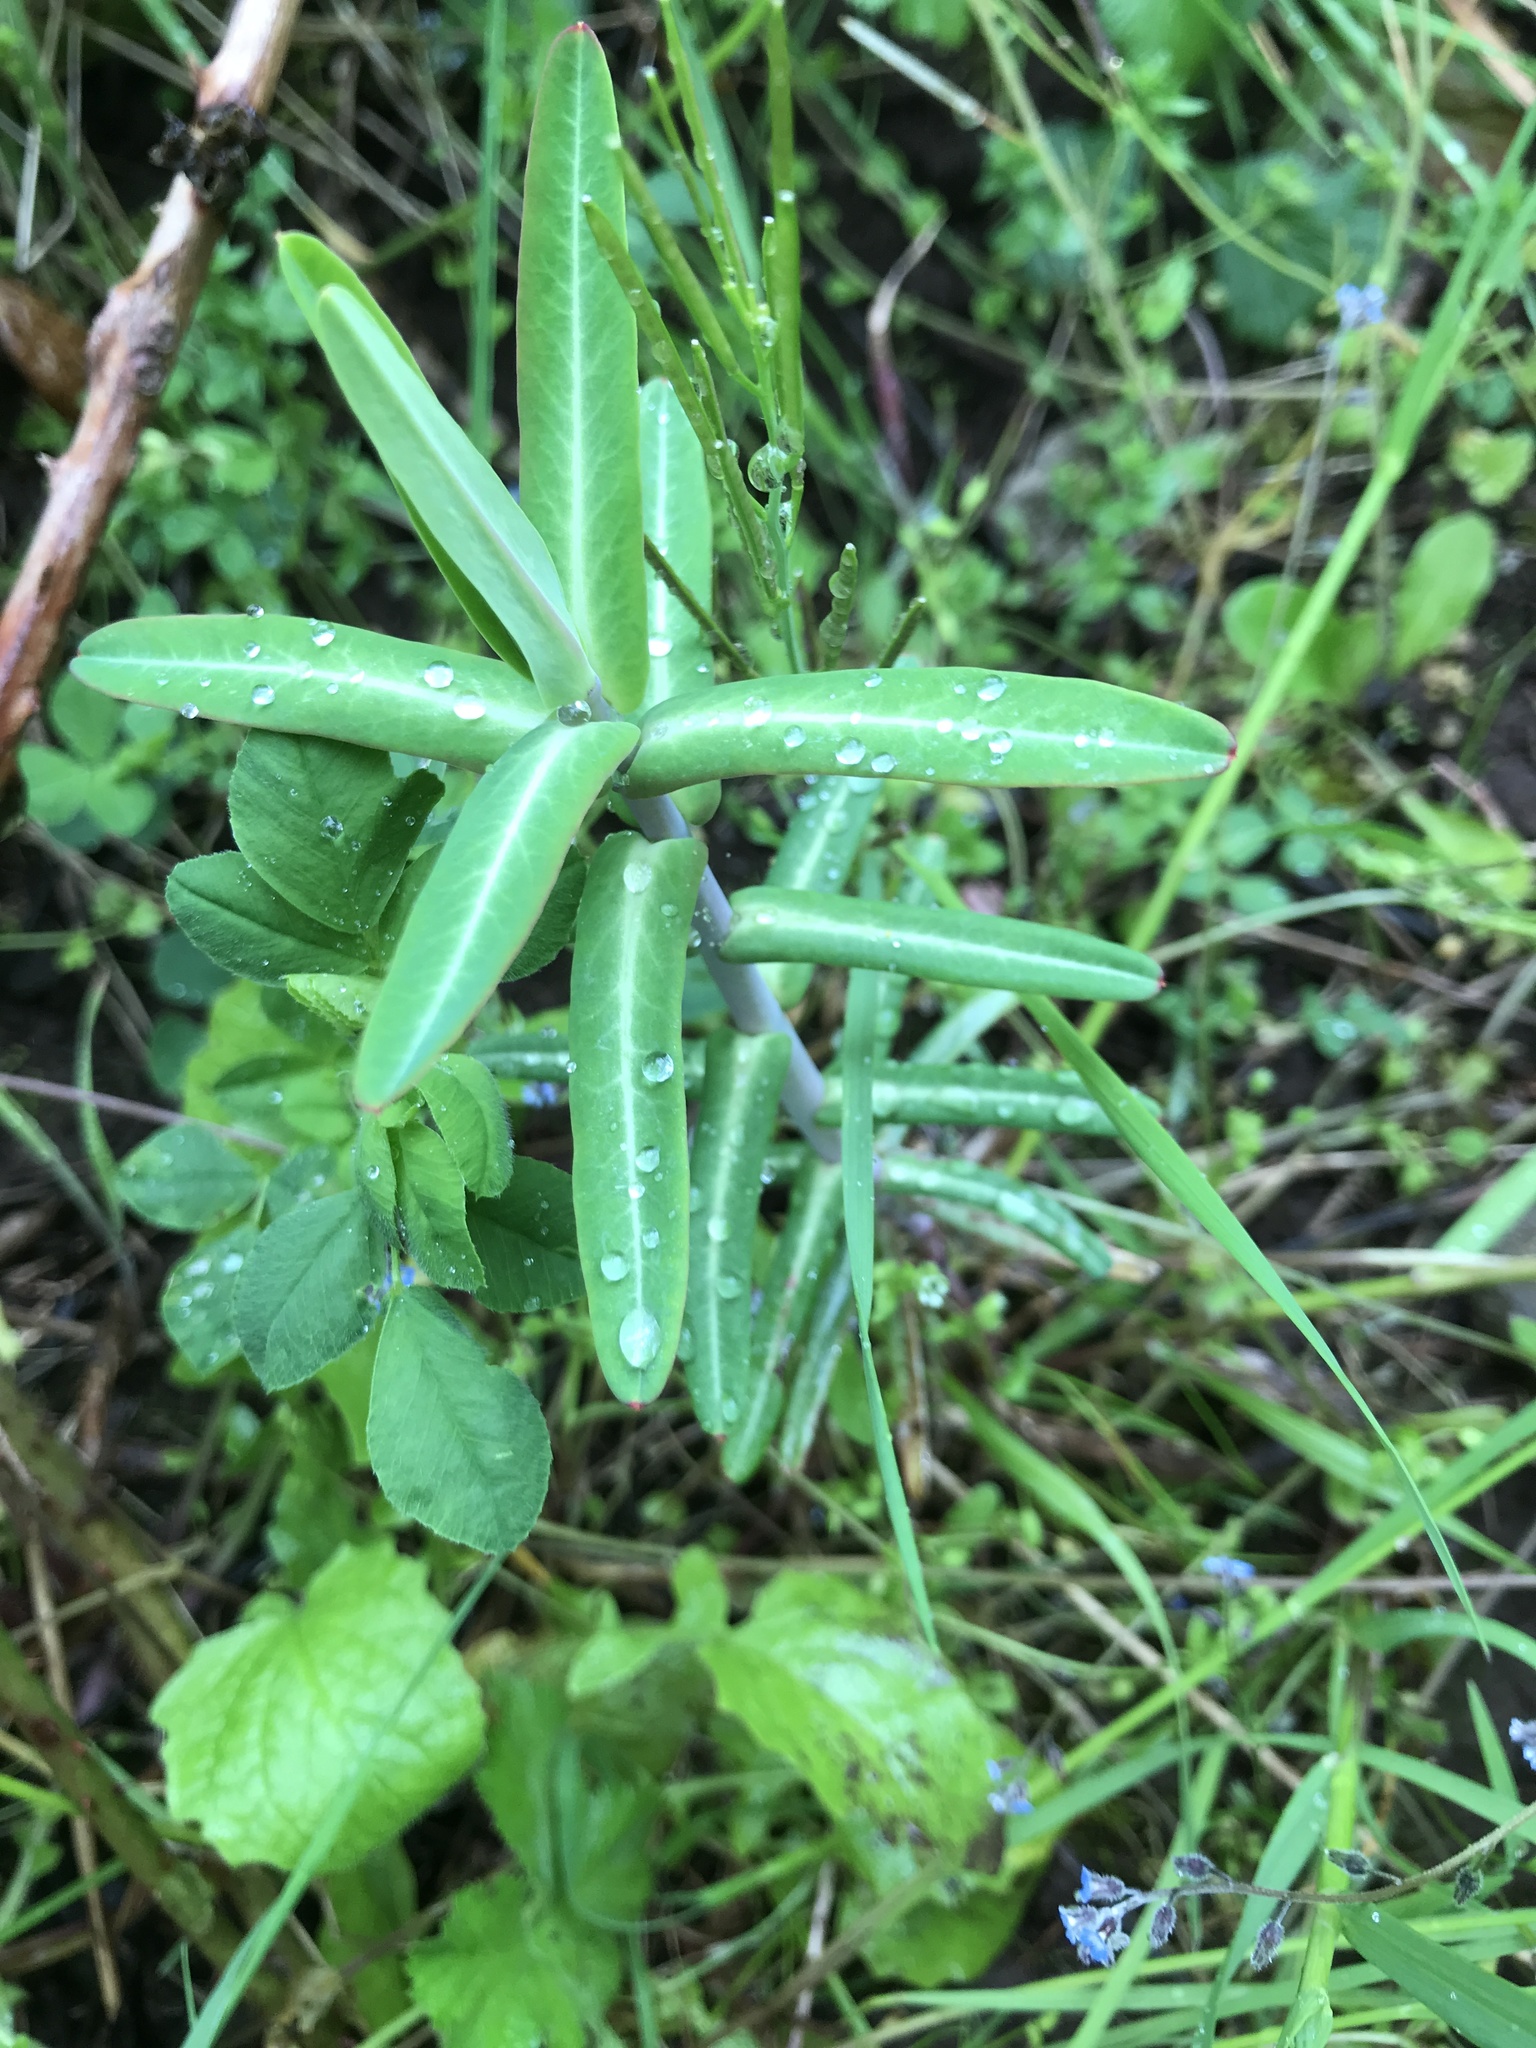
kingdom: Plantae
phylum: Tracheophyta
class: Magnoliopsida
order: Malpighiales
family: Euphorbiaceae
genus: Euphorbia
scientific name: Euphorbia lathyris
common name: Caper spurge
